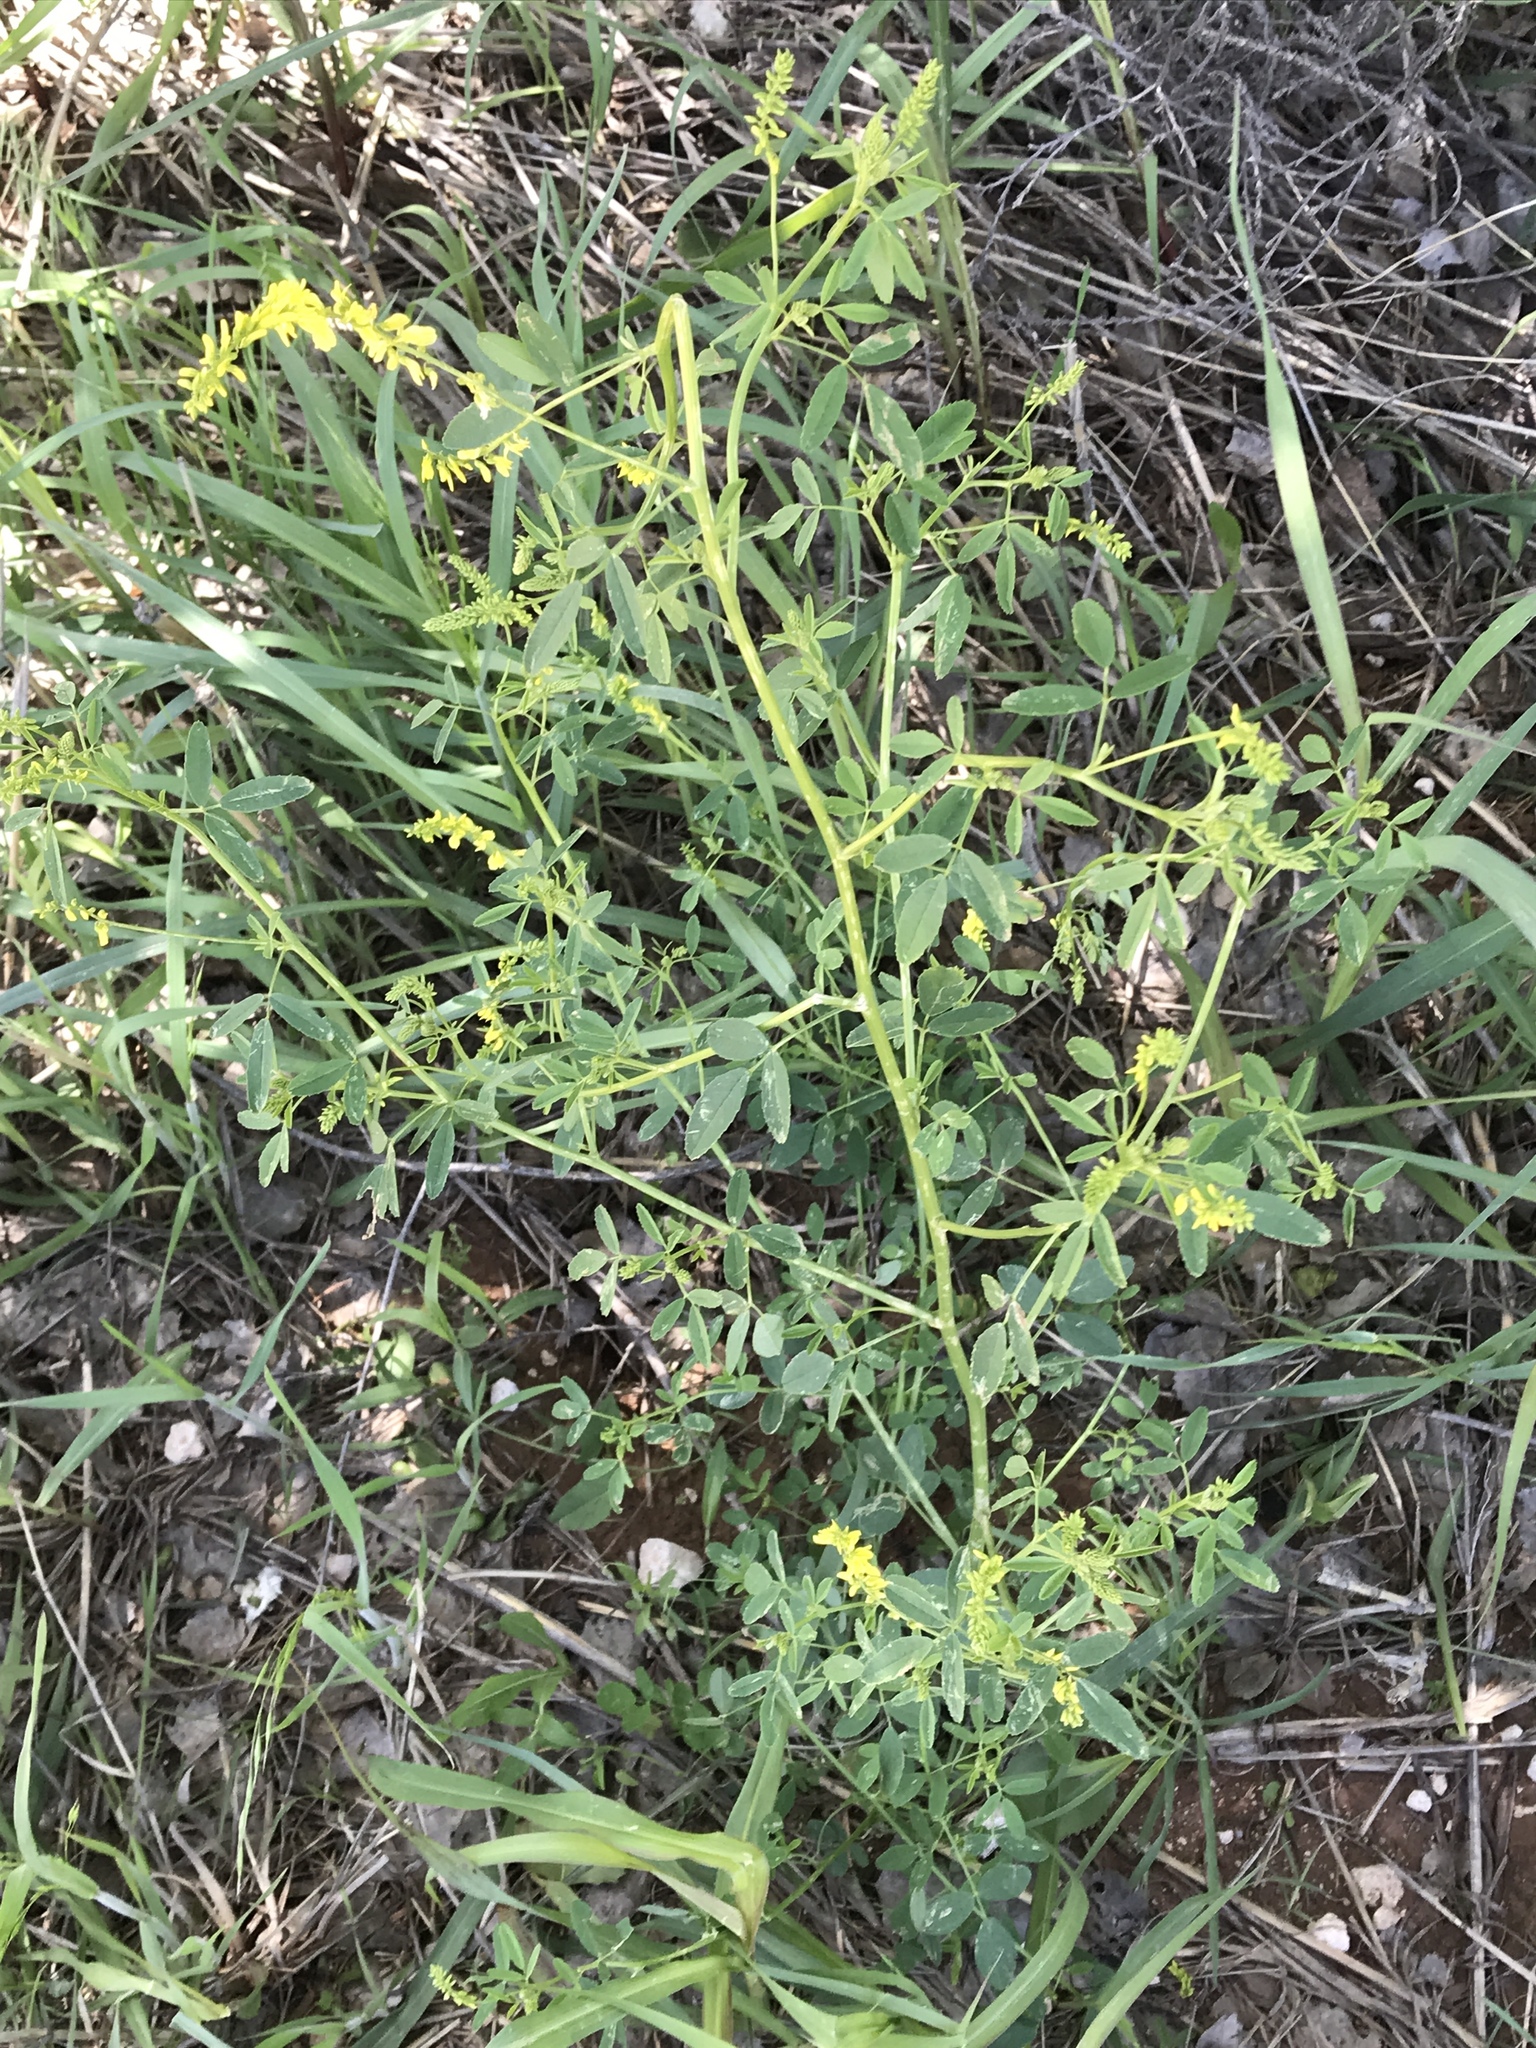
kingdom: Plantae
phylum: Tracheophyta
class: Magnoliopsida
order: Fabales
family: Fabaceae
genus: Melilotus
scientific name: Melilotus officinalis
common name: Sweetclover
